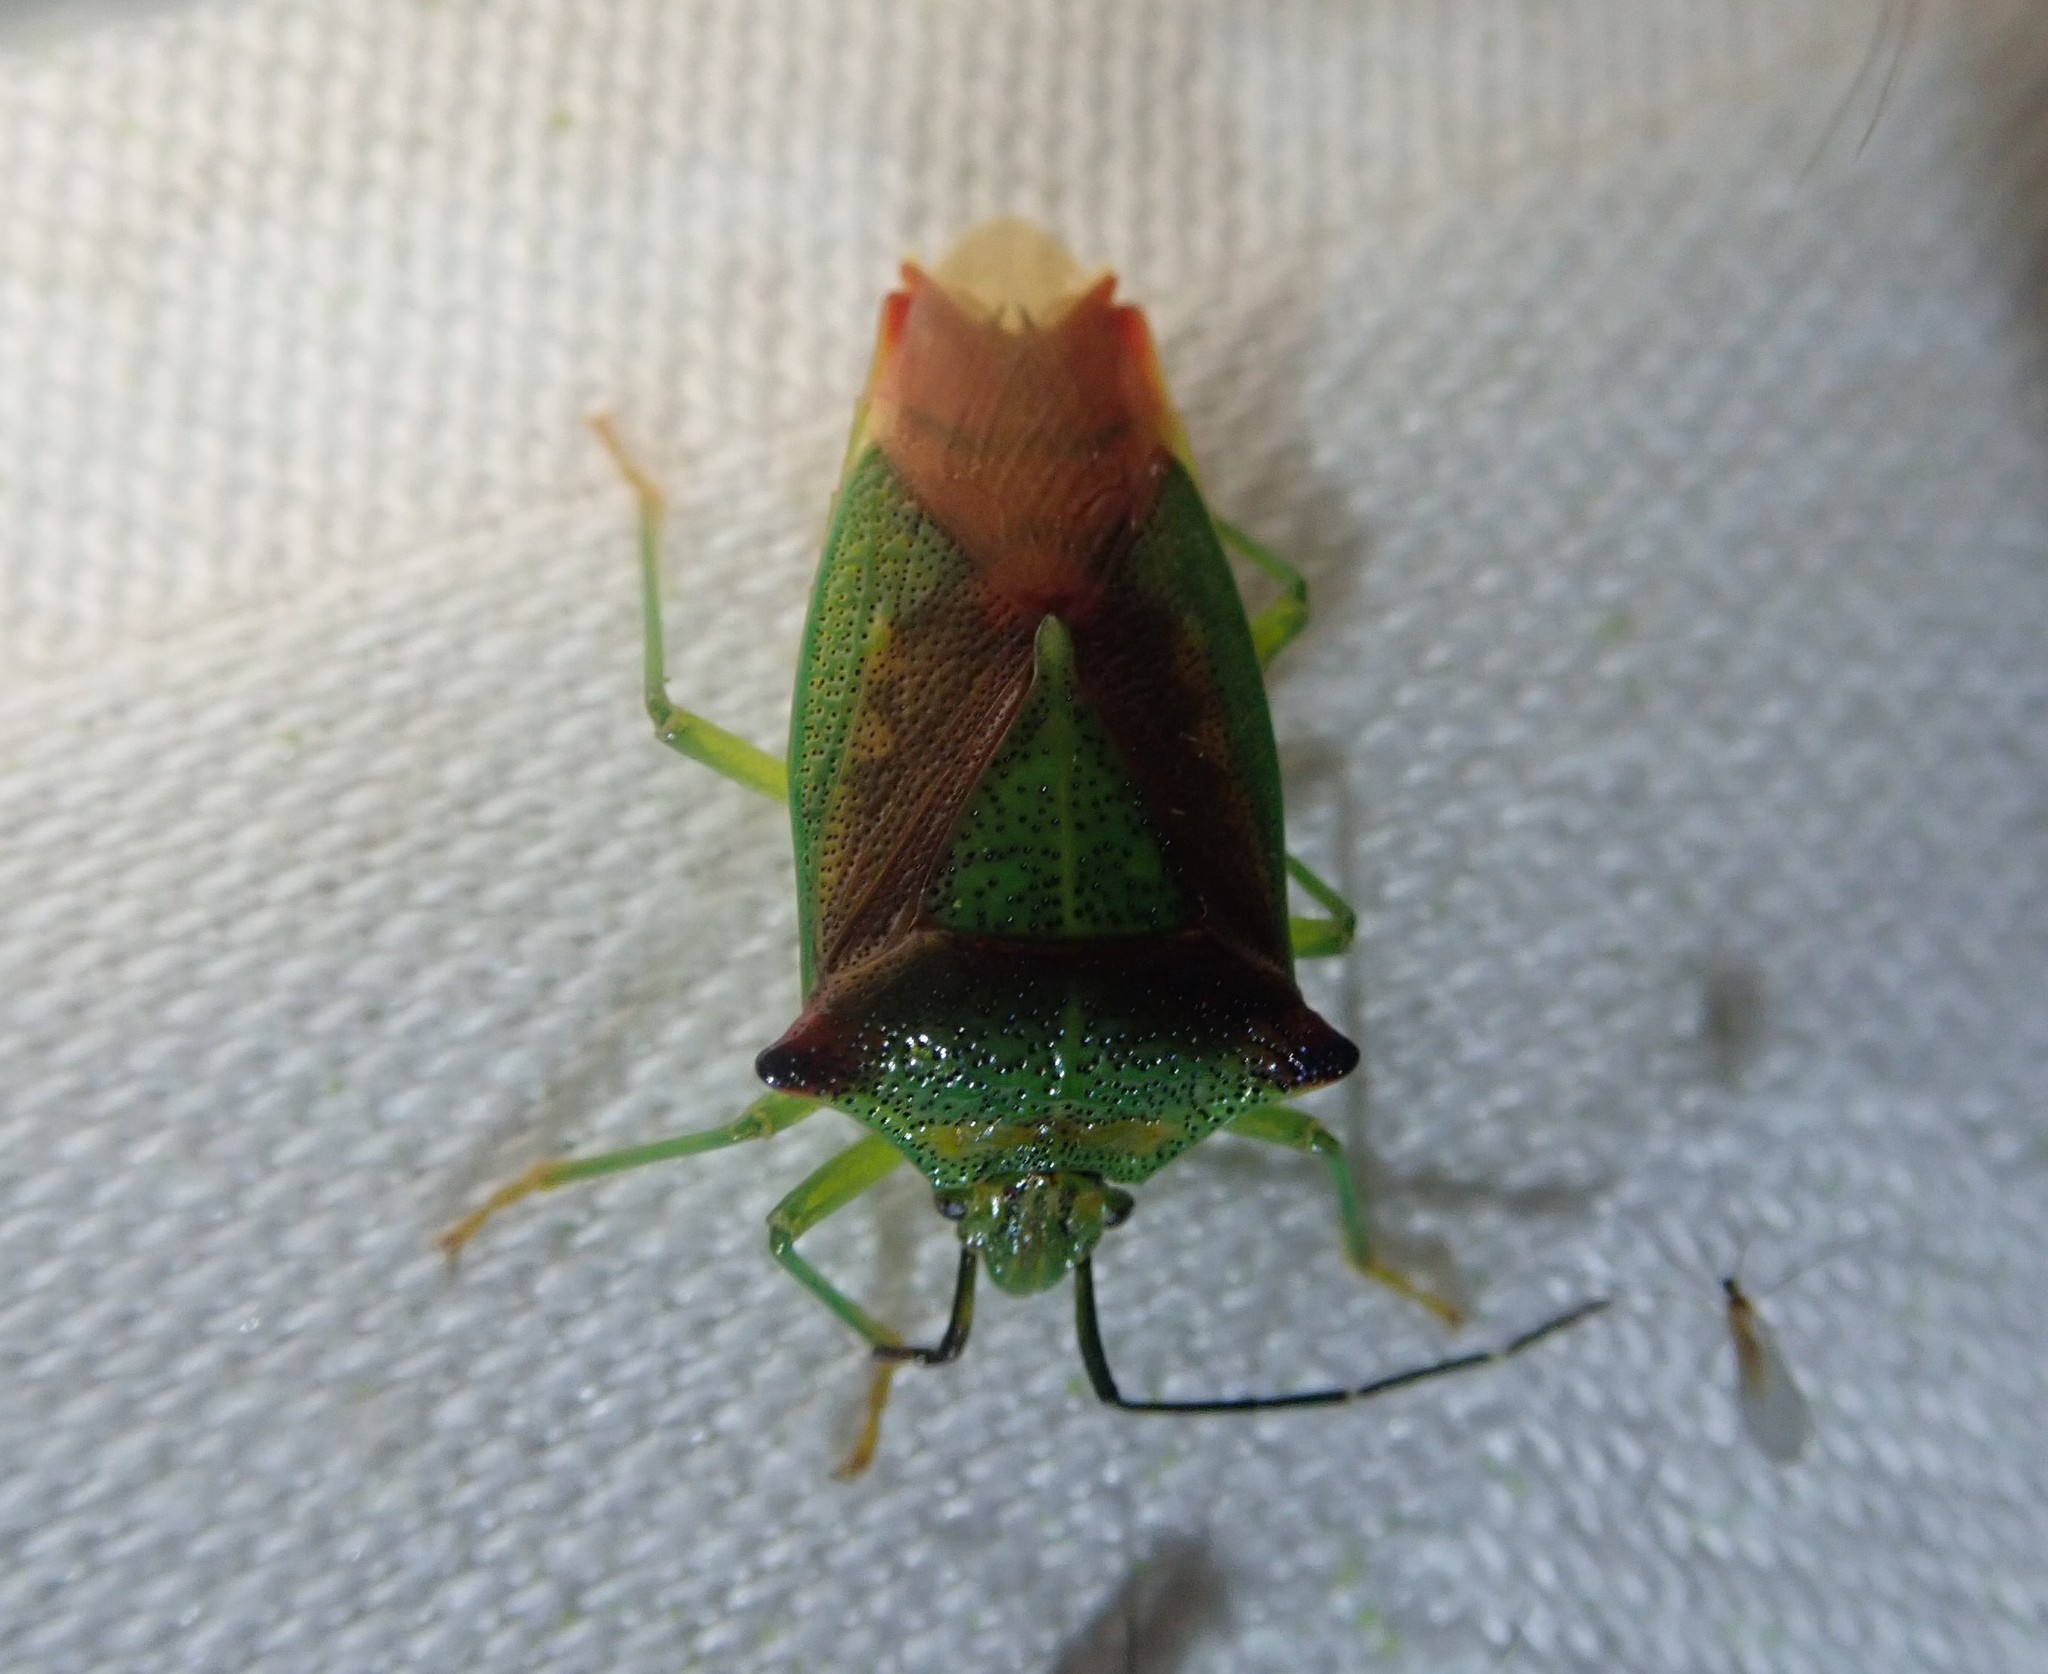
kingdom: Animalia
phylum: Arthropoda
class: Insecta
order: Hemiptera
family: Acanthosomatidae
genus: Acanthosoma
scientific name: Acanthosoma haemorrhoidale
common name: Hawthorn shieldbug
